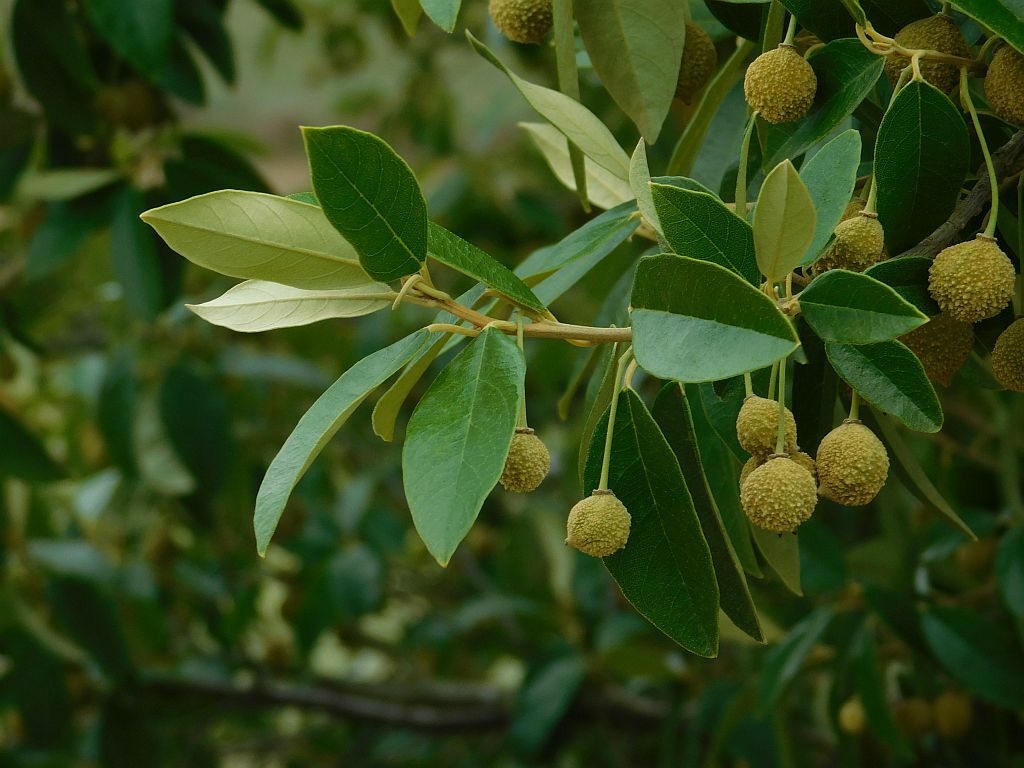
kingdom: Plantae
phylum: Tracheophyta
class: Magnoliopsida
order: Malpighiales
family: Achariaceae
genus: Kiggelaria
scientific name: Kiggelaria africana
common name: Wild peach
